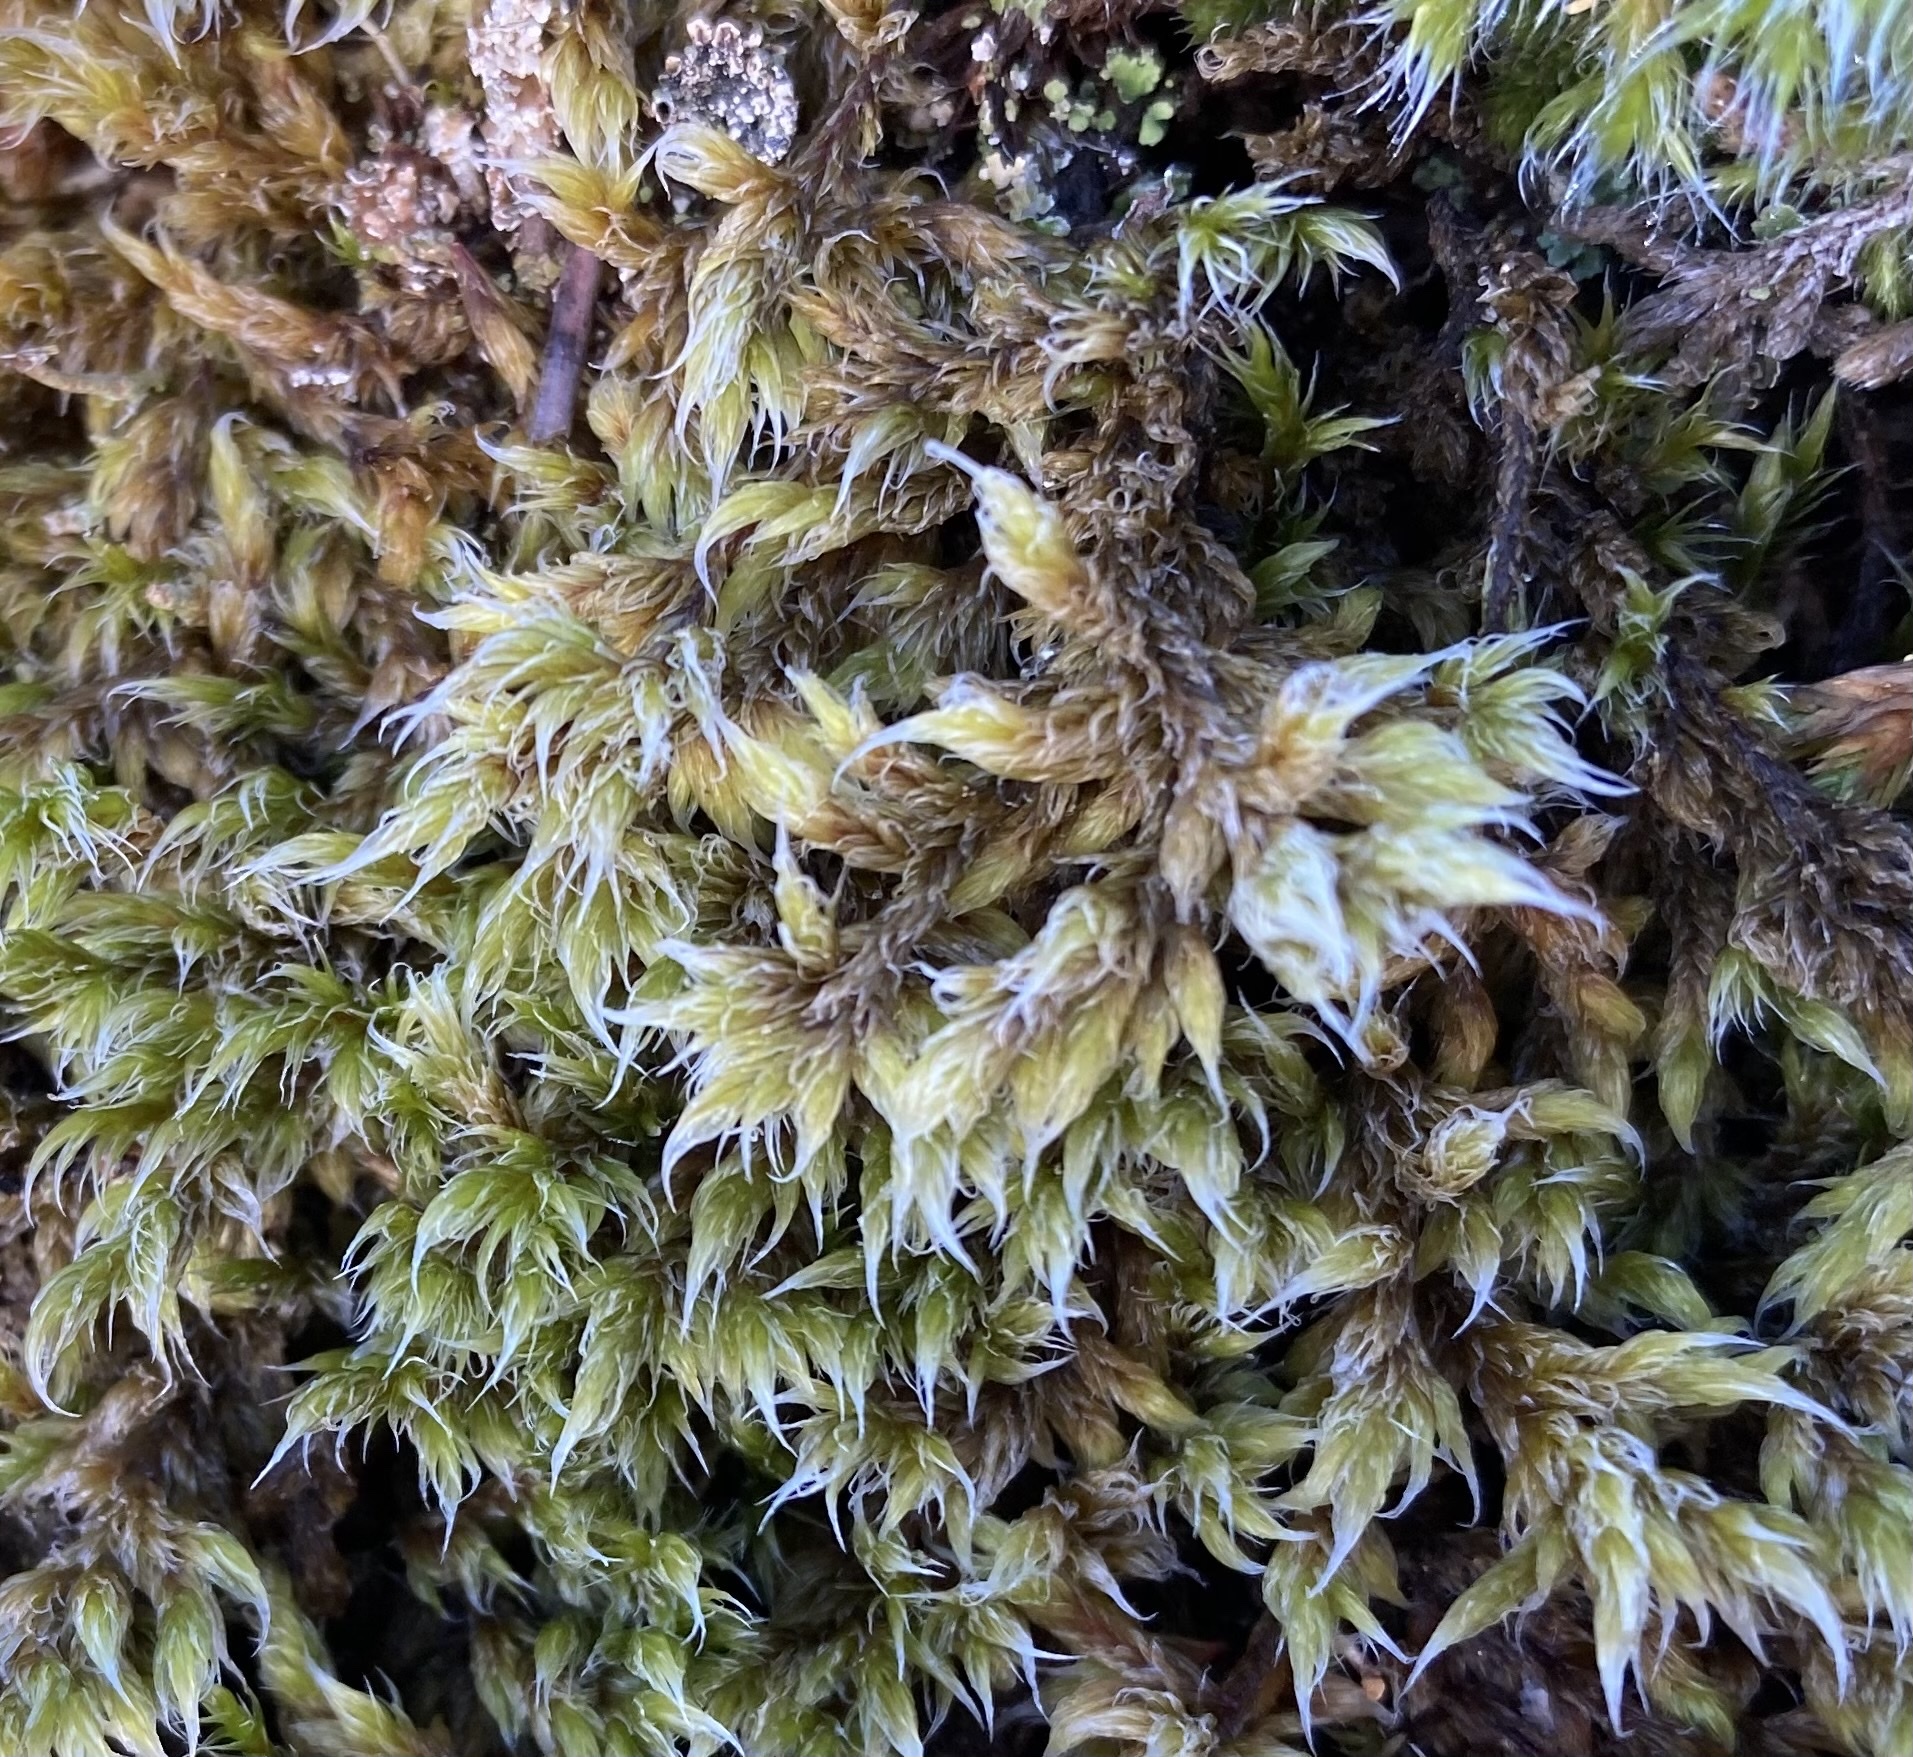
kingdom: Plantae
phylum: Bryophyta
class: Bryopsida
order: Grimmiales
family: Grimmiaceae
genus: Racomitrium
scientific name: Racomitrium lanuginosum
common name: Hoary rock moss
